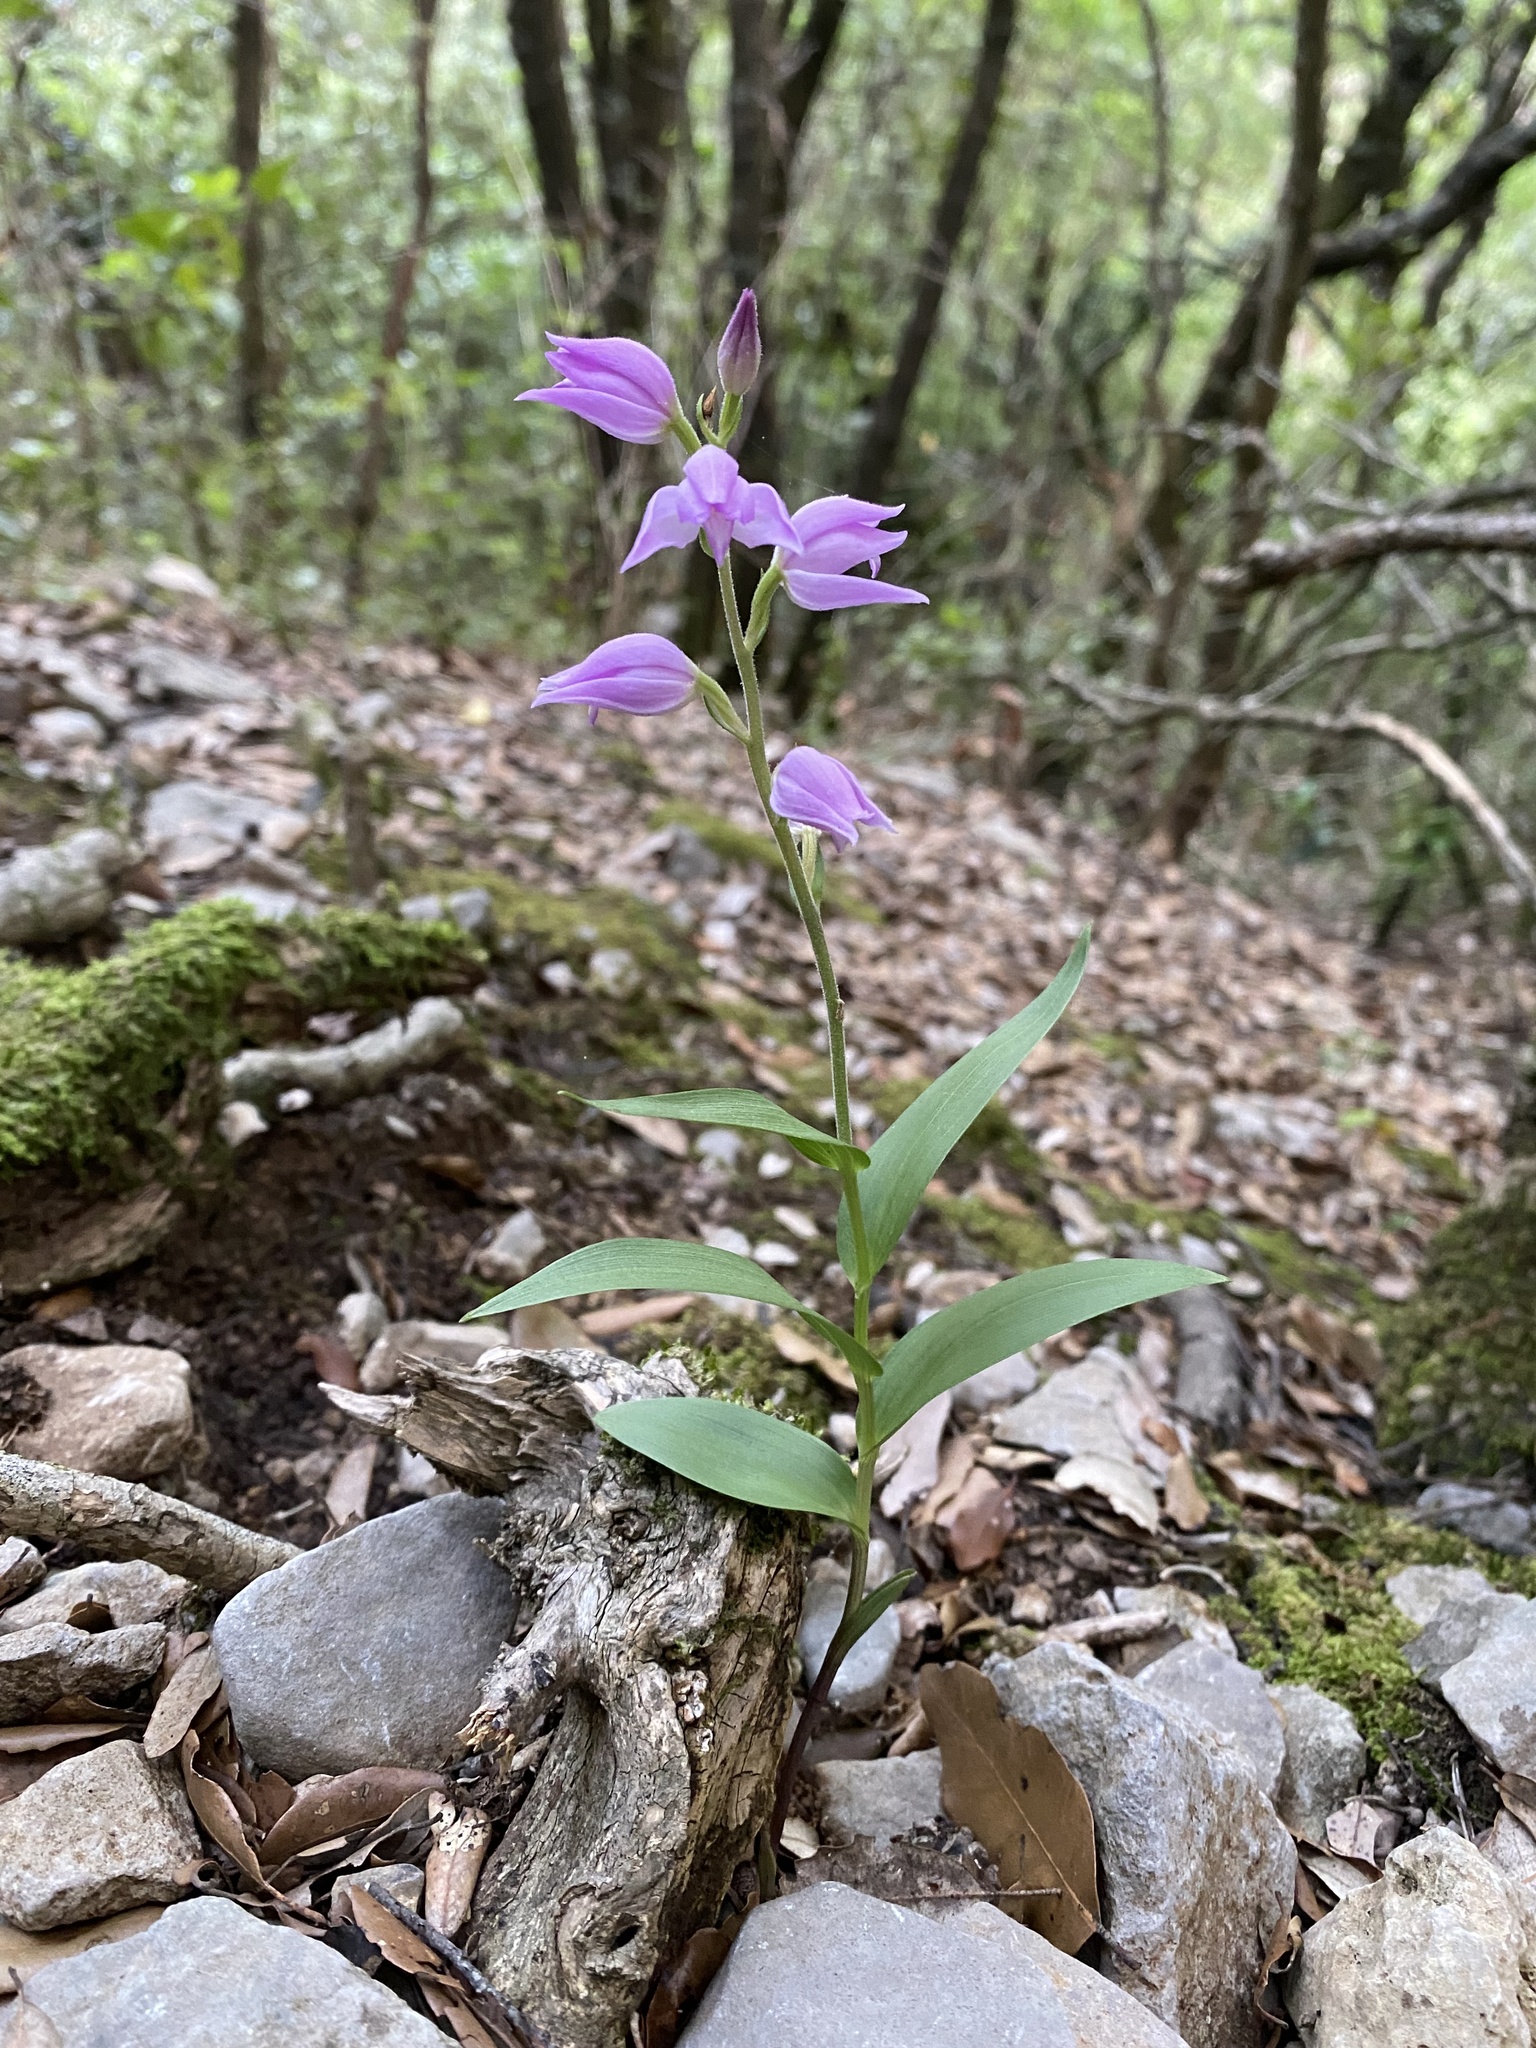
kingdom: Plantae
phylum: Tracheophyta
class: Liliopsida
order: Asparagales
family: Orchidaceae
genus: Cephalanthera
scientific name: Cephalanthera rubra
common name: Red helleborine
